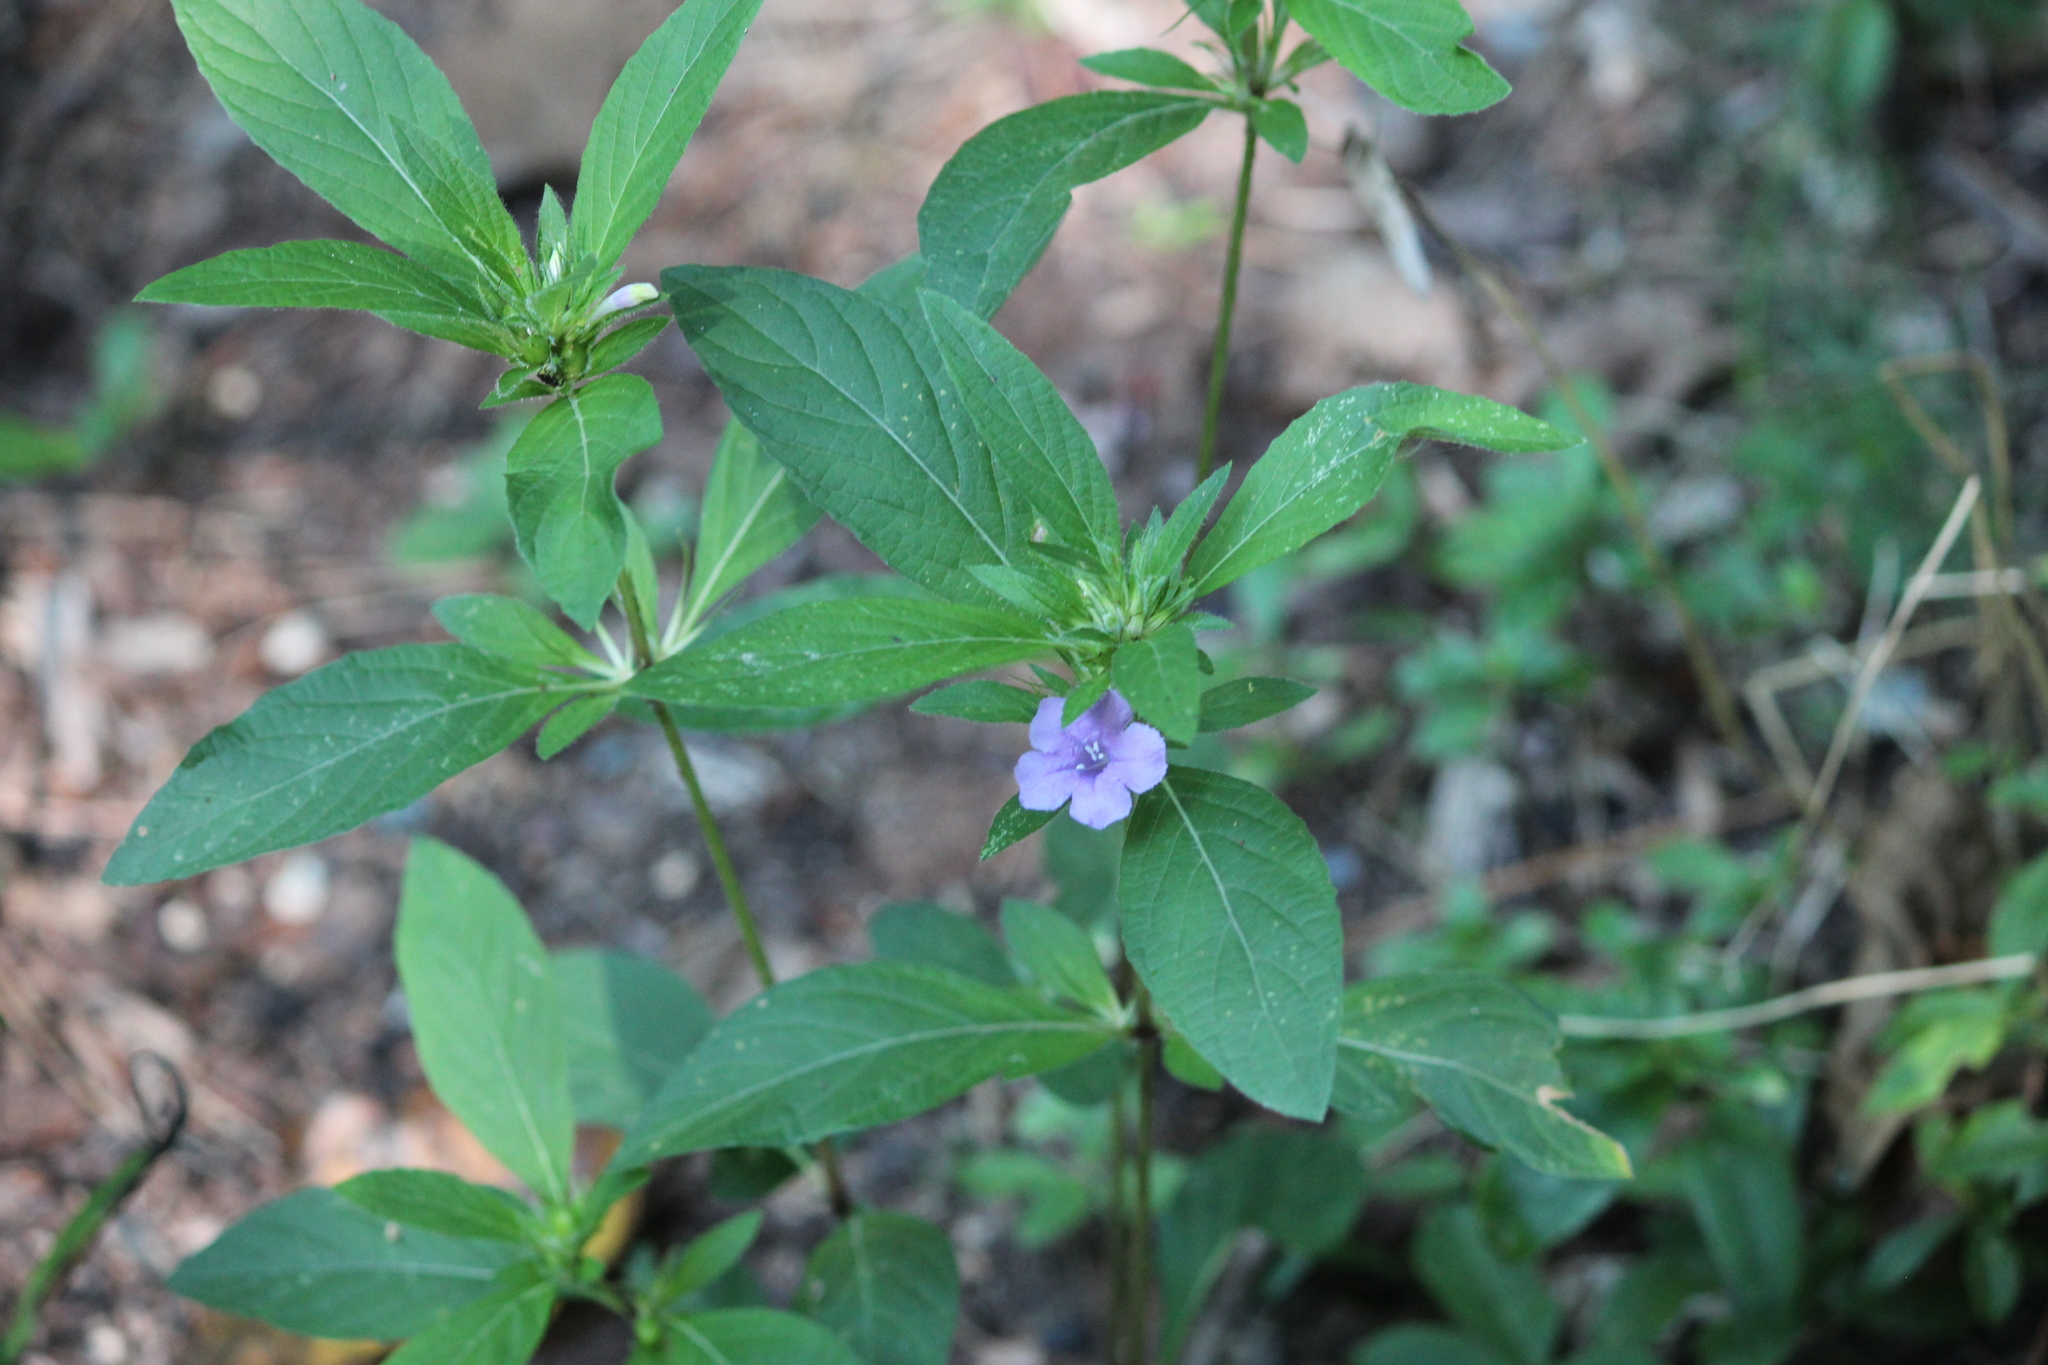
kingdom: Plantae
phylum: Tracheophyta
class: Magnoliopsida
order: Lamiales
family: Acanthaceae
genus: Ruellia
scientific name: Ruellia caroliniensis
